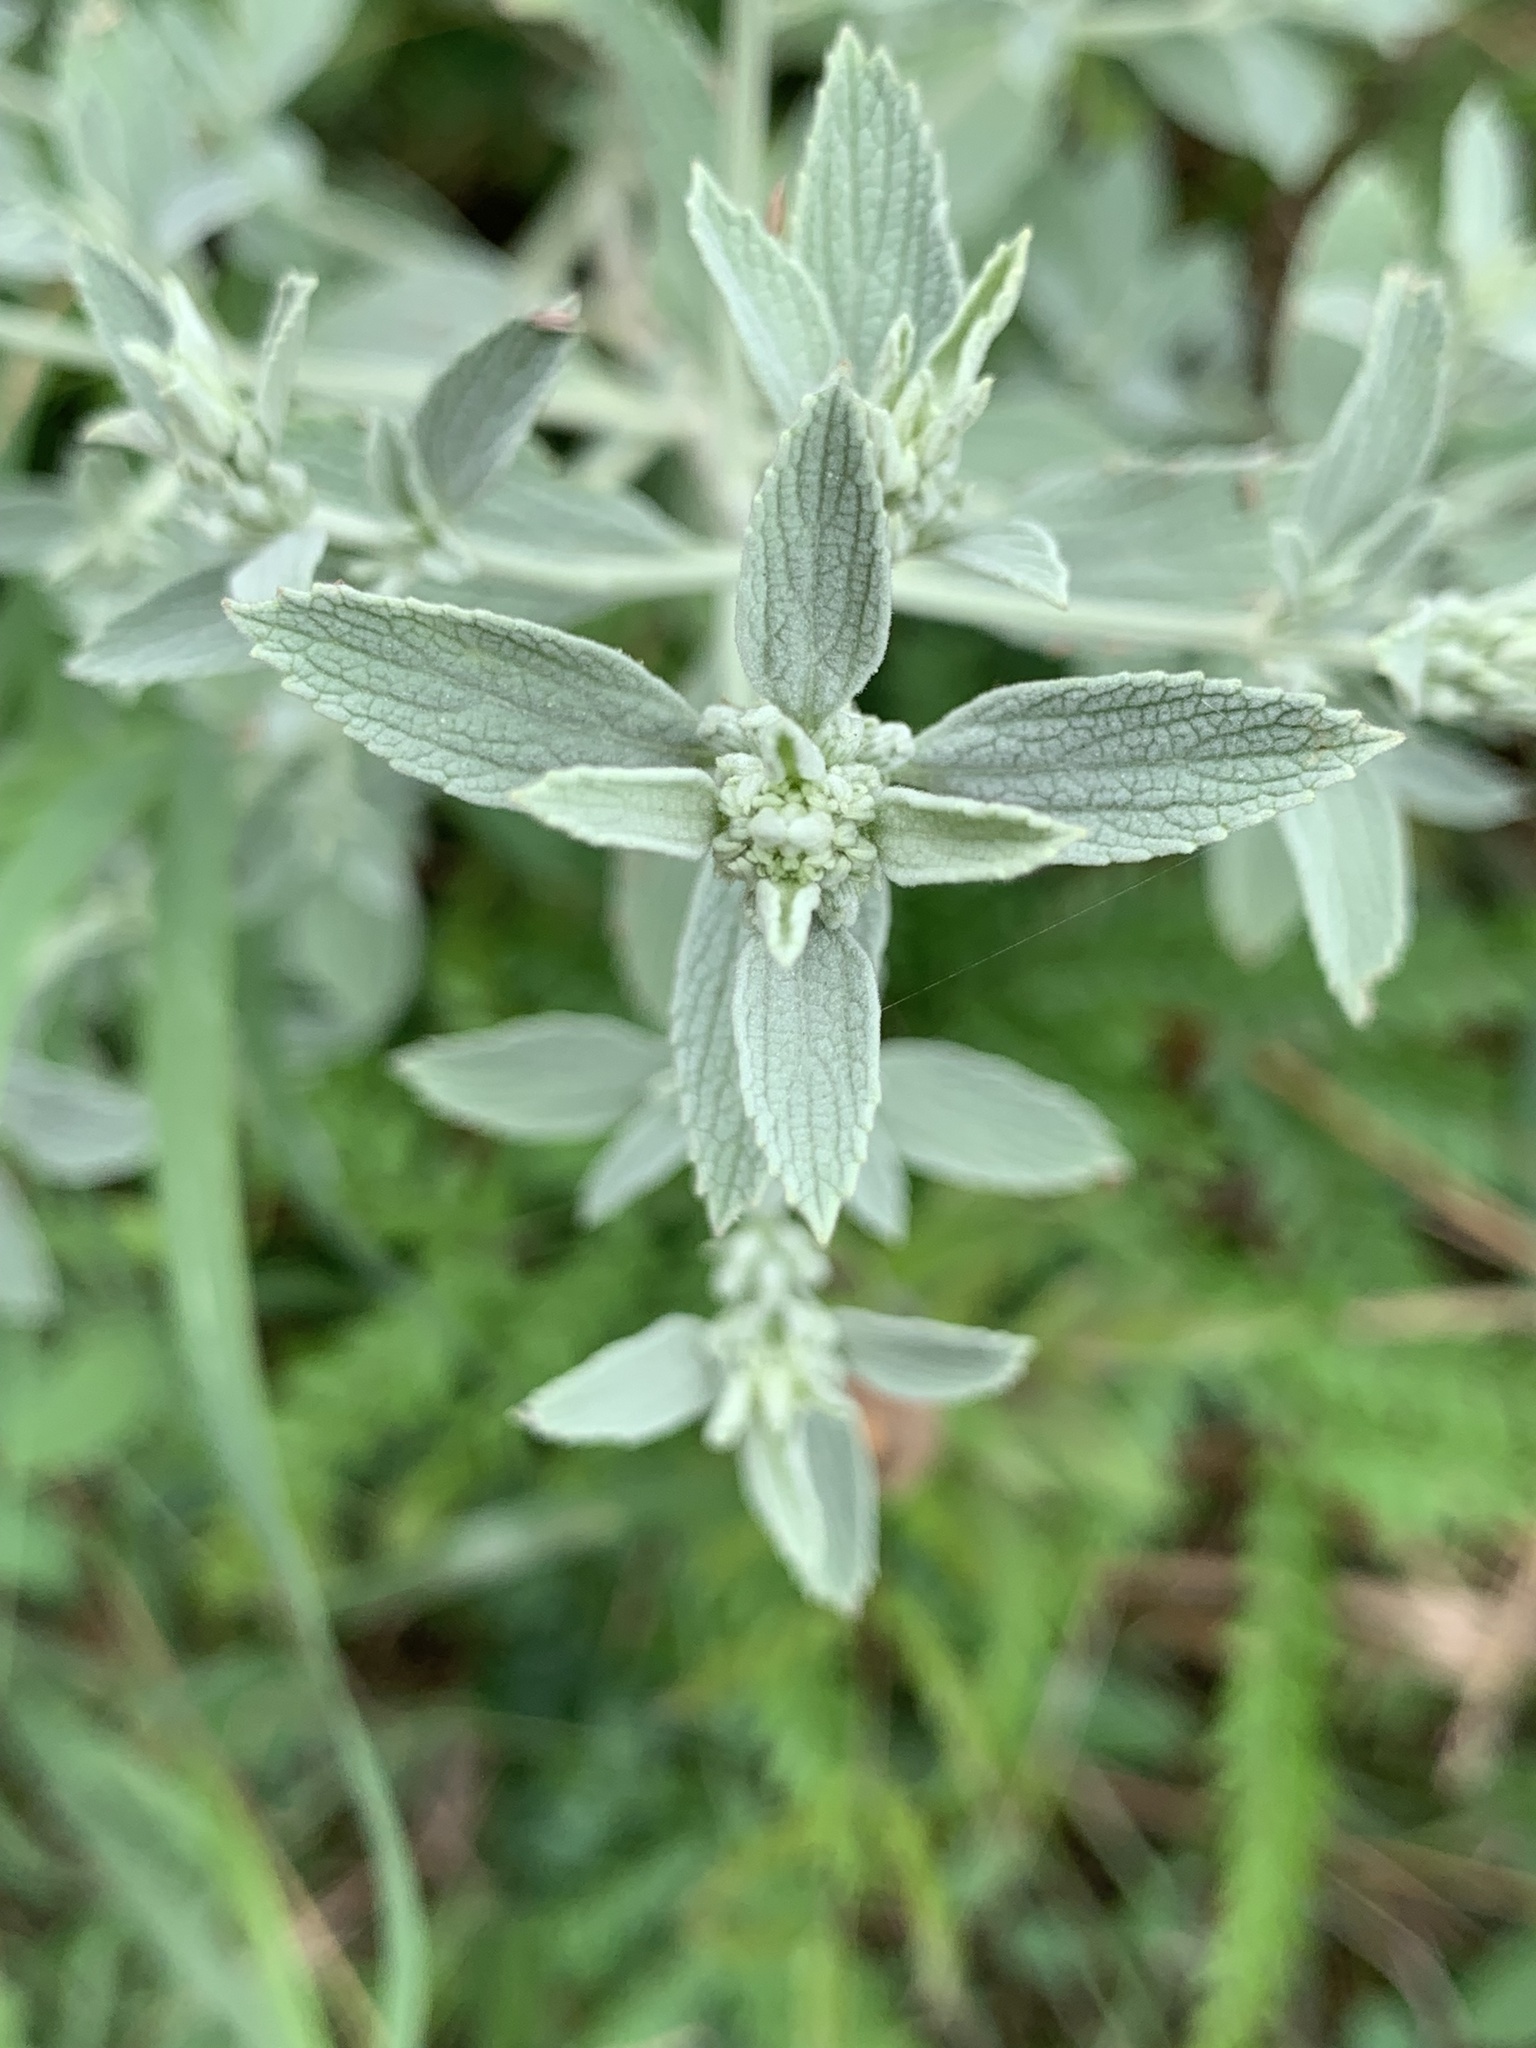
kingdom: Plantae
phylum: Tracheophyta
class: Magnoliopsida
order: Lamiales
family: Lamiaceae
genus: Marrubium
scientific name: Marrubium peregrinum
